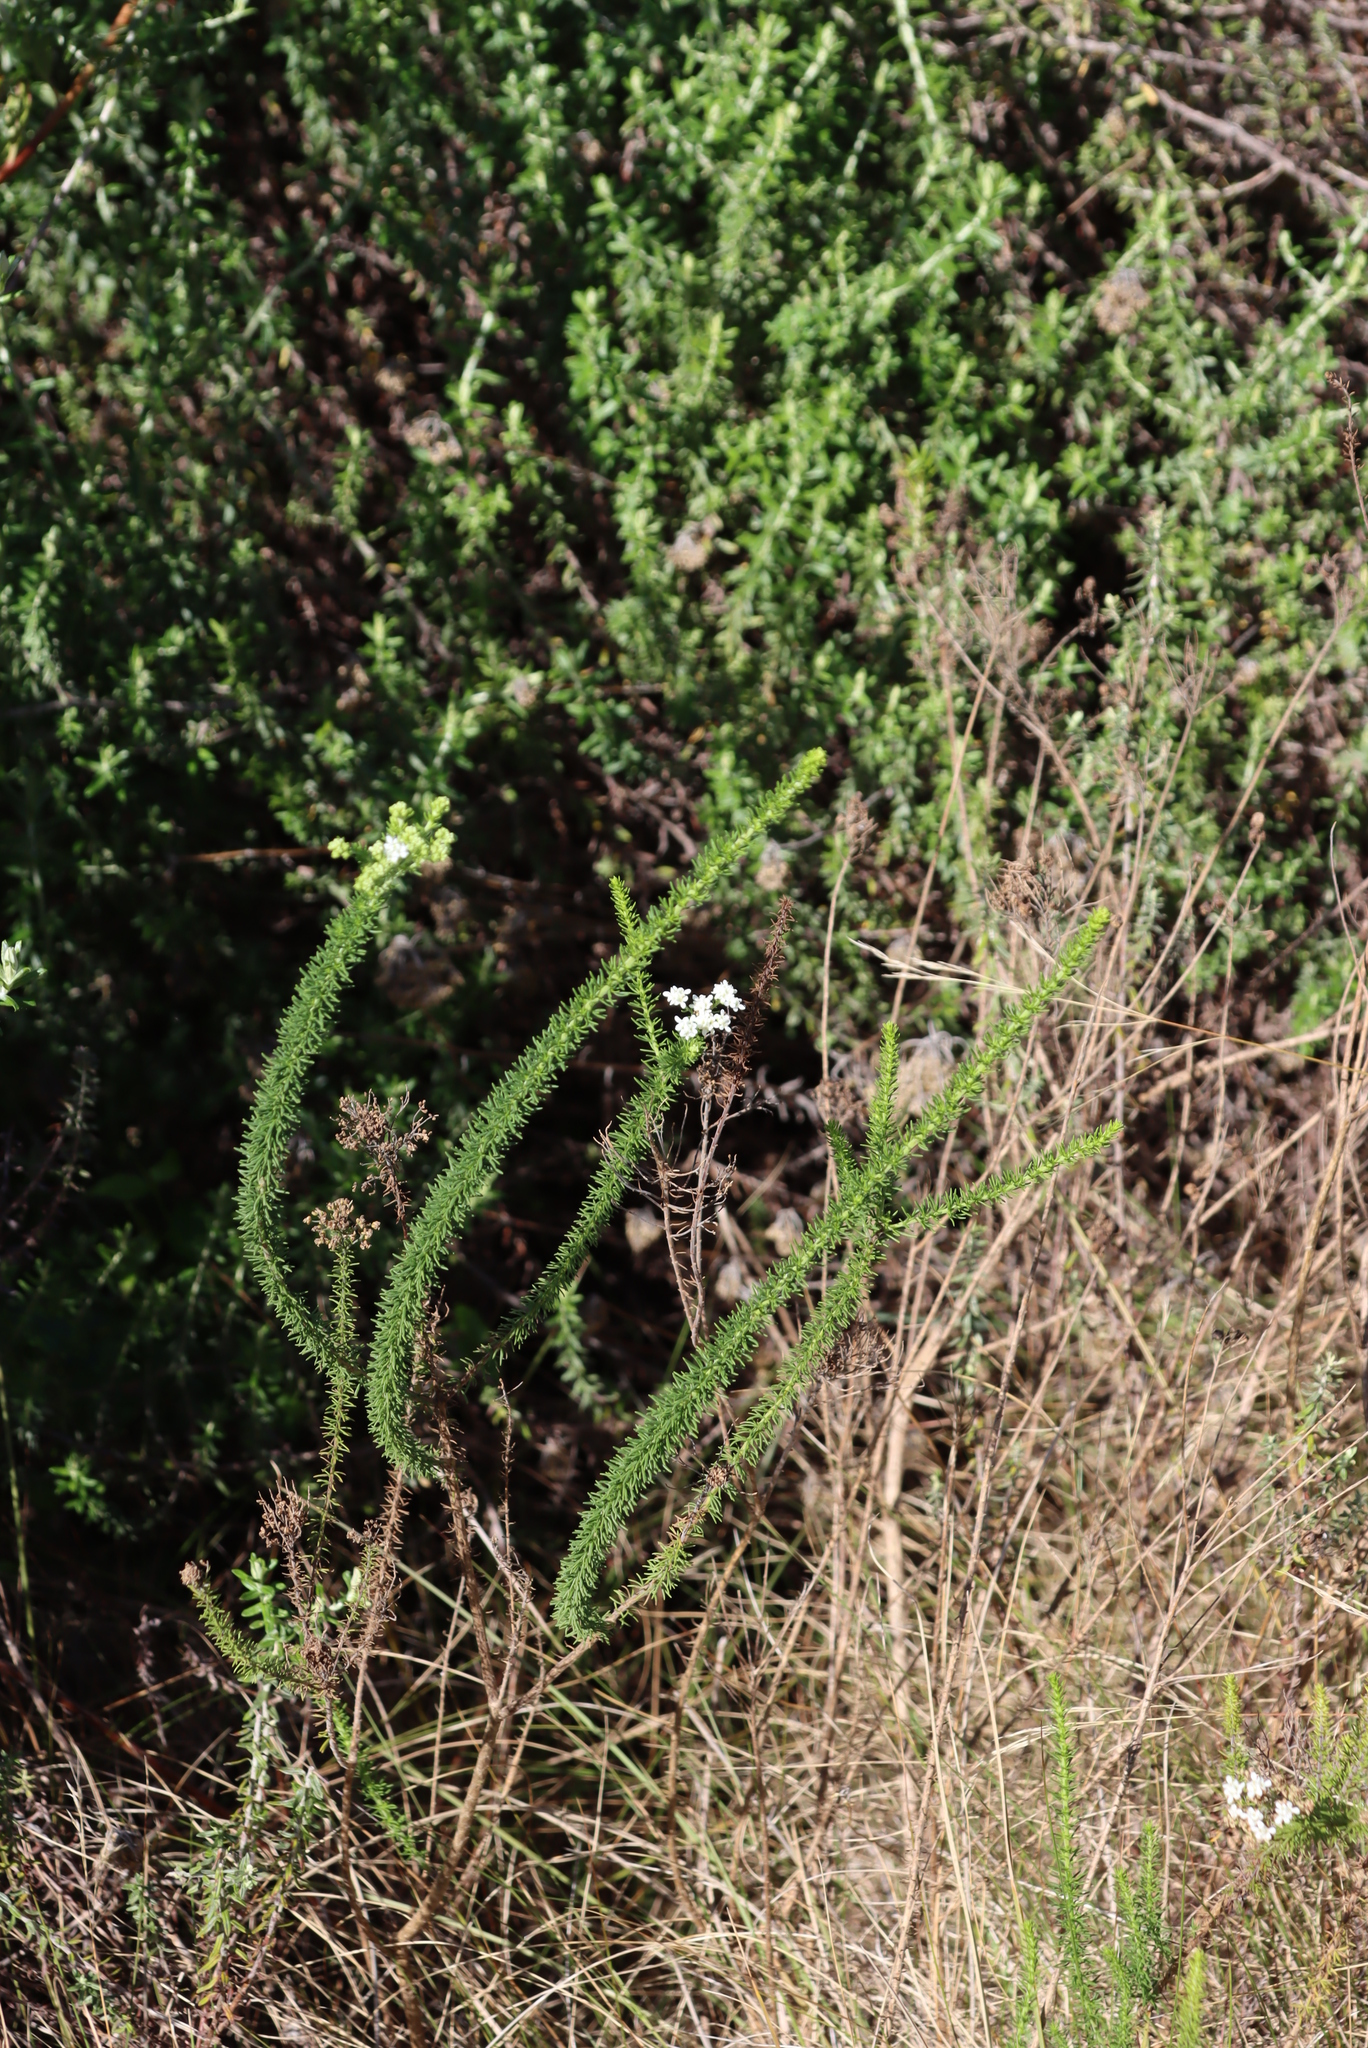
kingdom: Plantae
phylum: Tracheophyta
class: Magnoliopsida
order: Lamiales
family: Scrophulariaceae
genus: Selago
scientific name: Selago corymbosa
